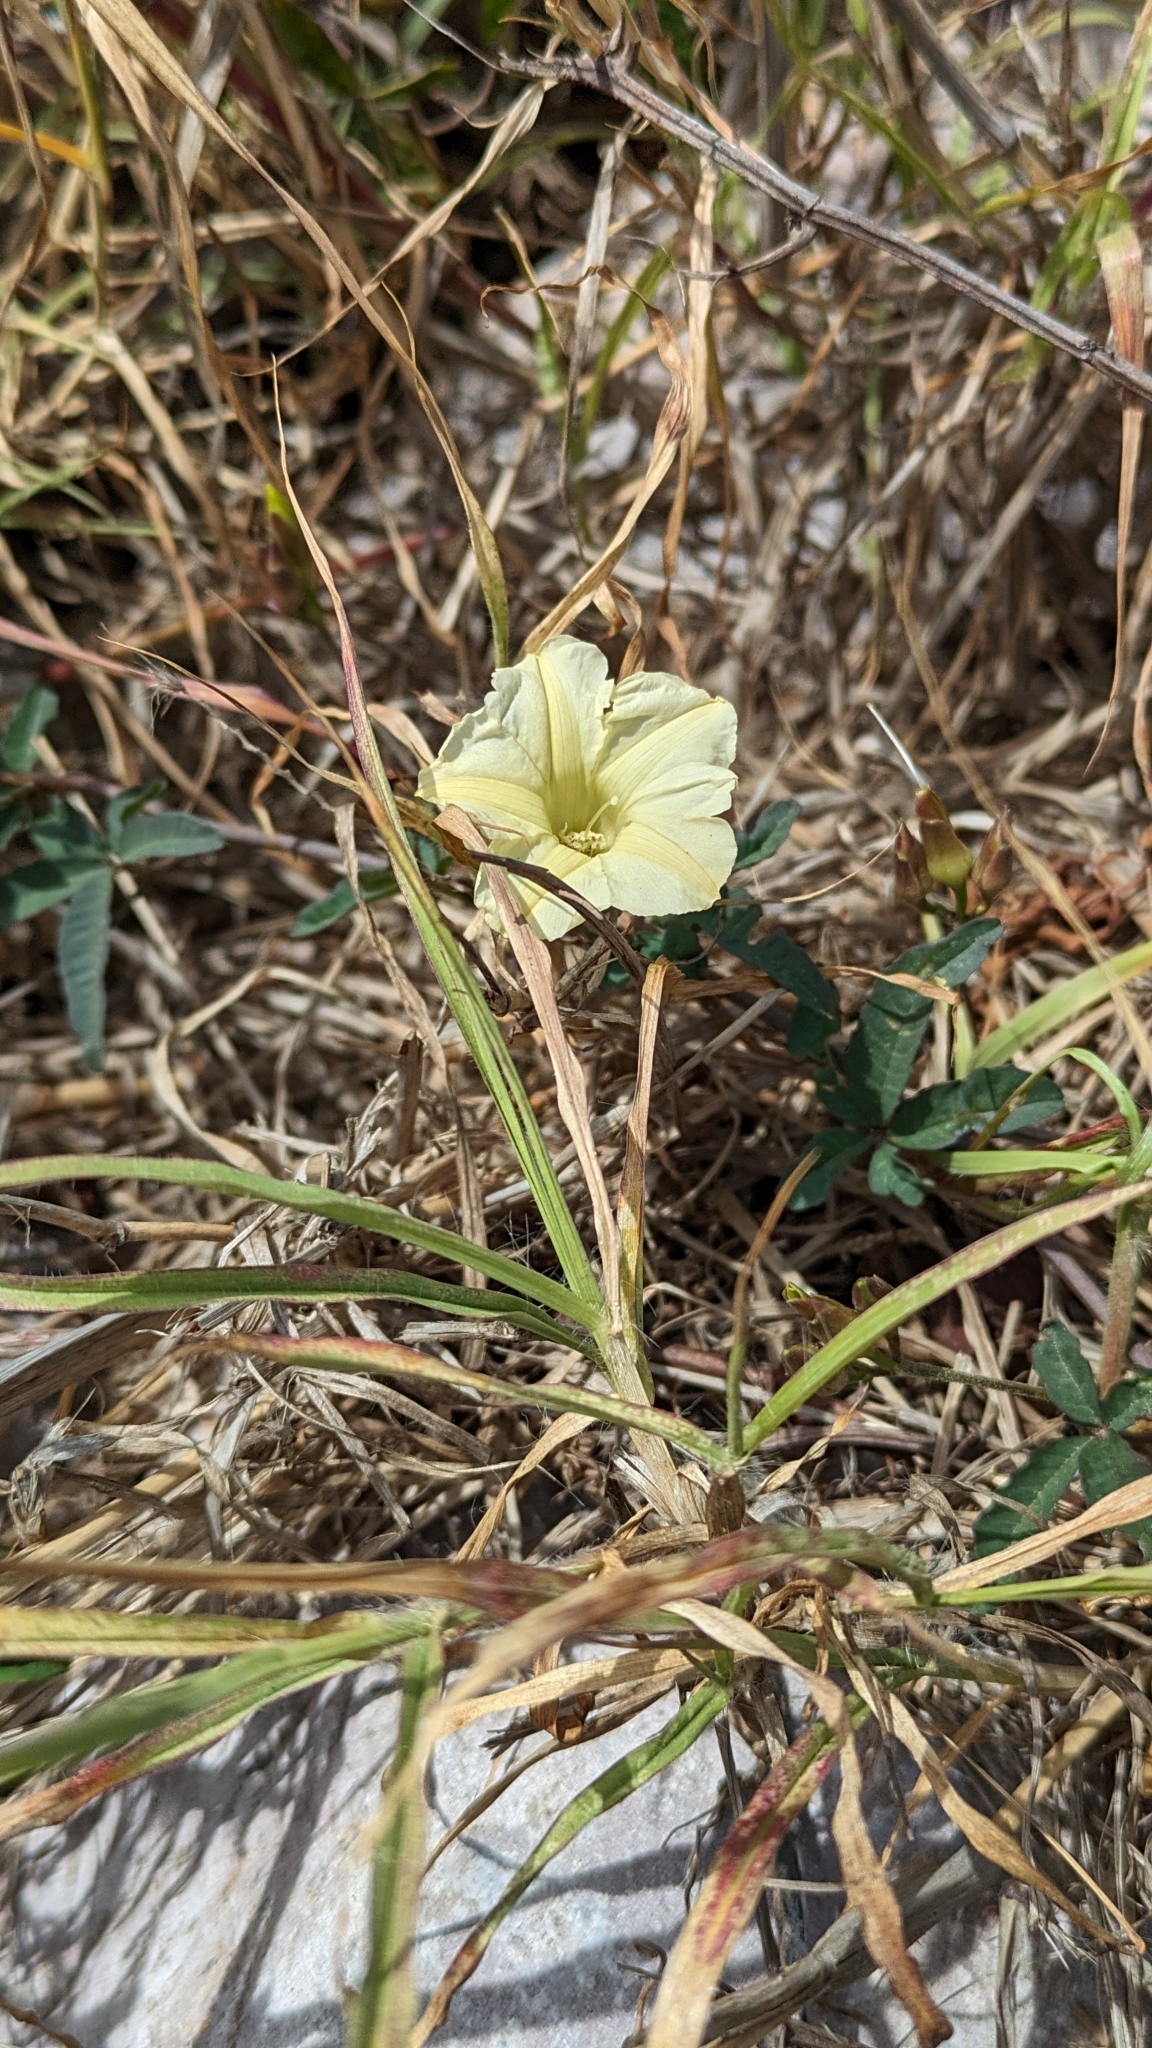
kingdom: Plantae
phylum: Tracheophyta
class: Magnoliopsida
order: Solanales
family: Convolvulaceae
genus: Distimake
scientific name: Distimake quinquefolius
